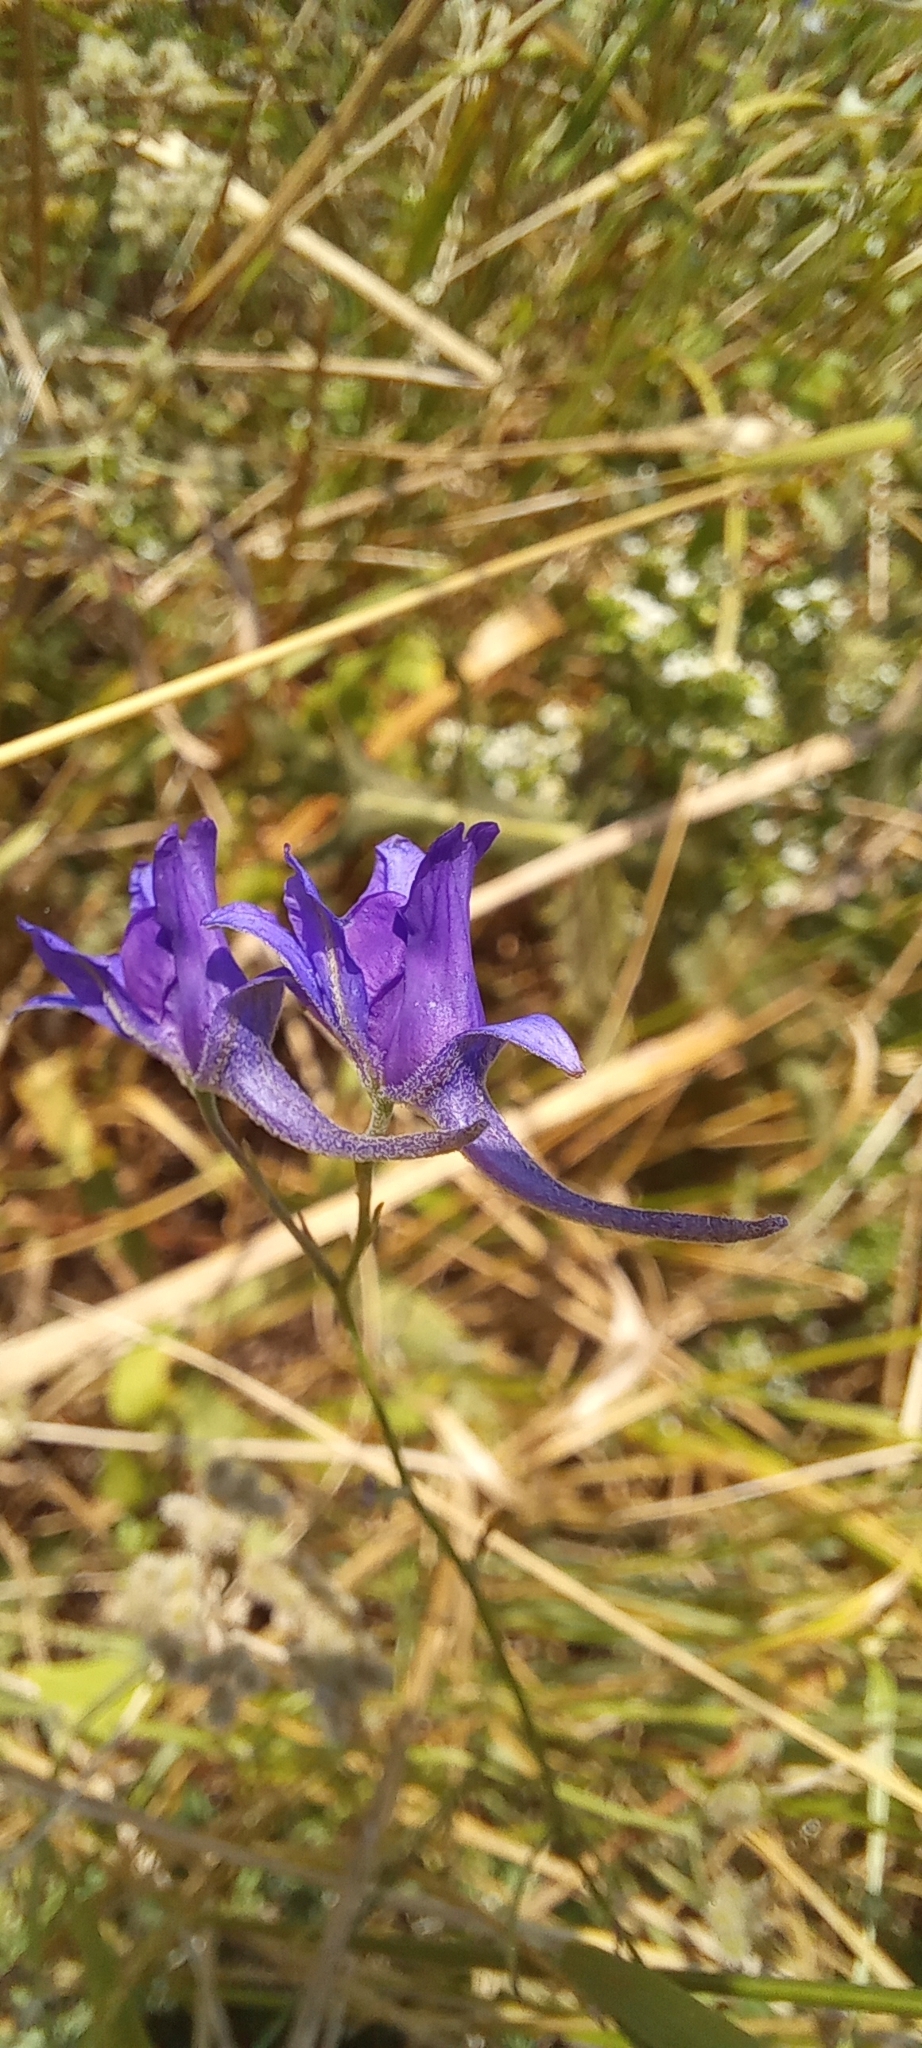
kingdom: Plantae
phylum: Tracheophyta
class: Magnoliopsida
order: Ranunculales
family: Ranunculaceae
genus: Delphinium
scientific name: Delphinium consolida
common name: Branching larkspur
